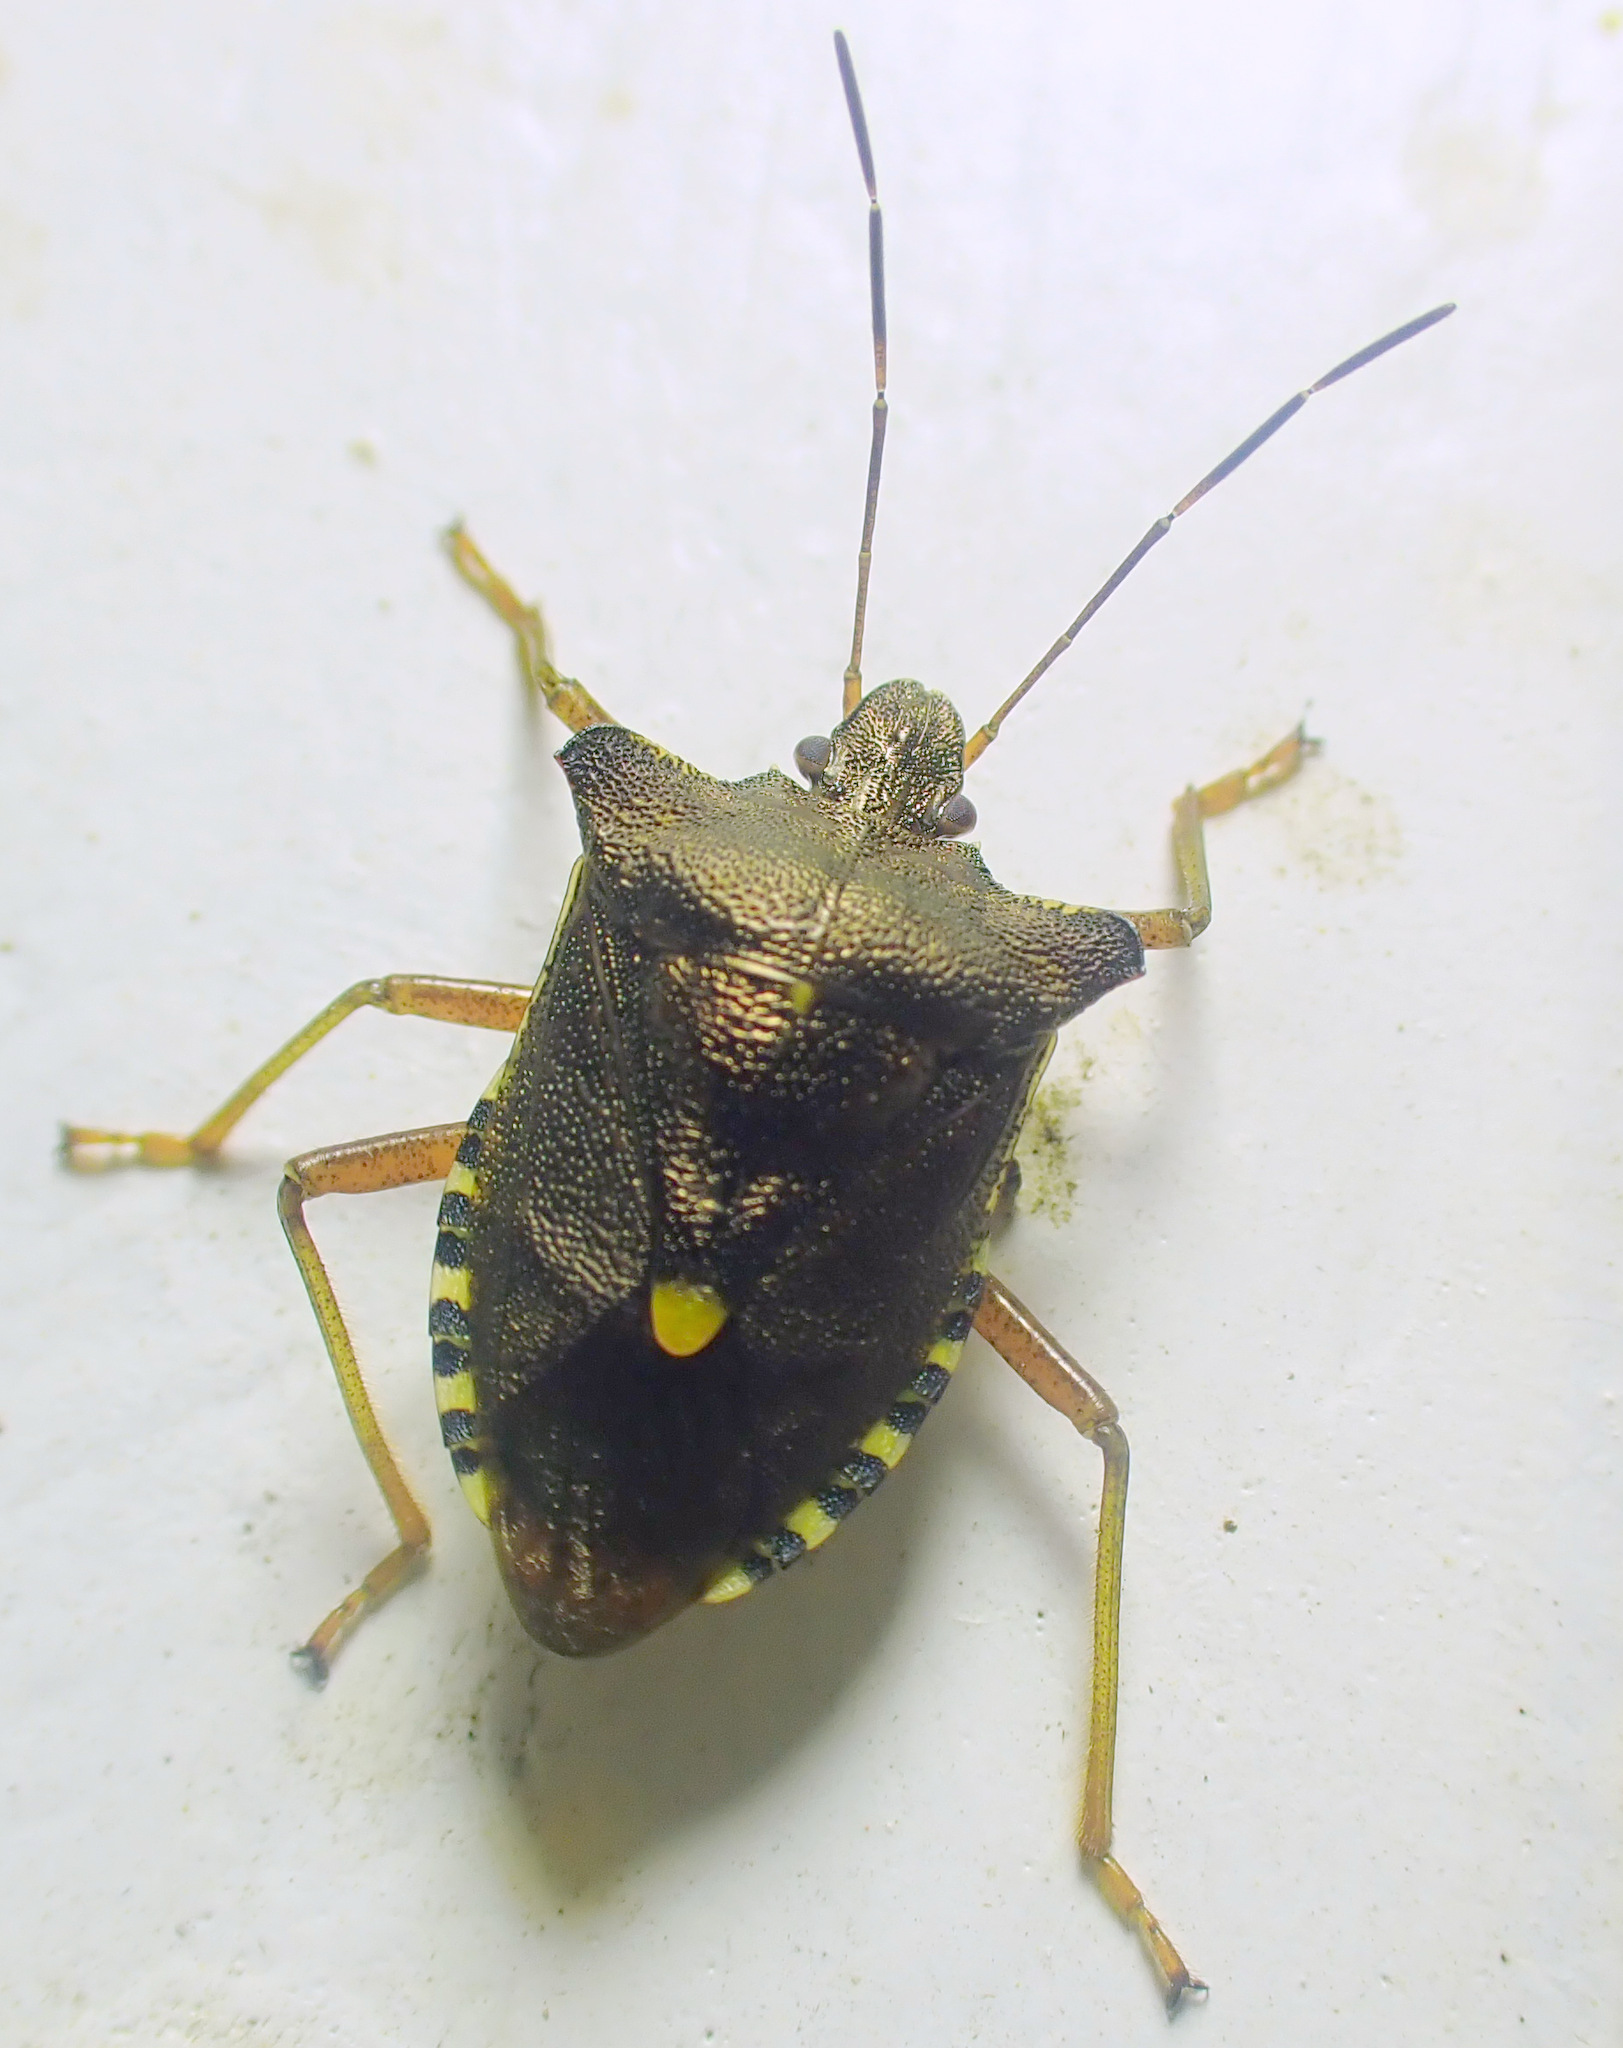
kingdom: Animalia
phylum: Arthropoda
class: Insecta
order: Hemiptera
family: Pentatomidae
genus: Pentatoma
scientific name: Pentatoma rufipes
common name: Forest bug
